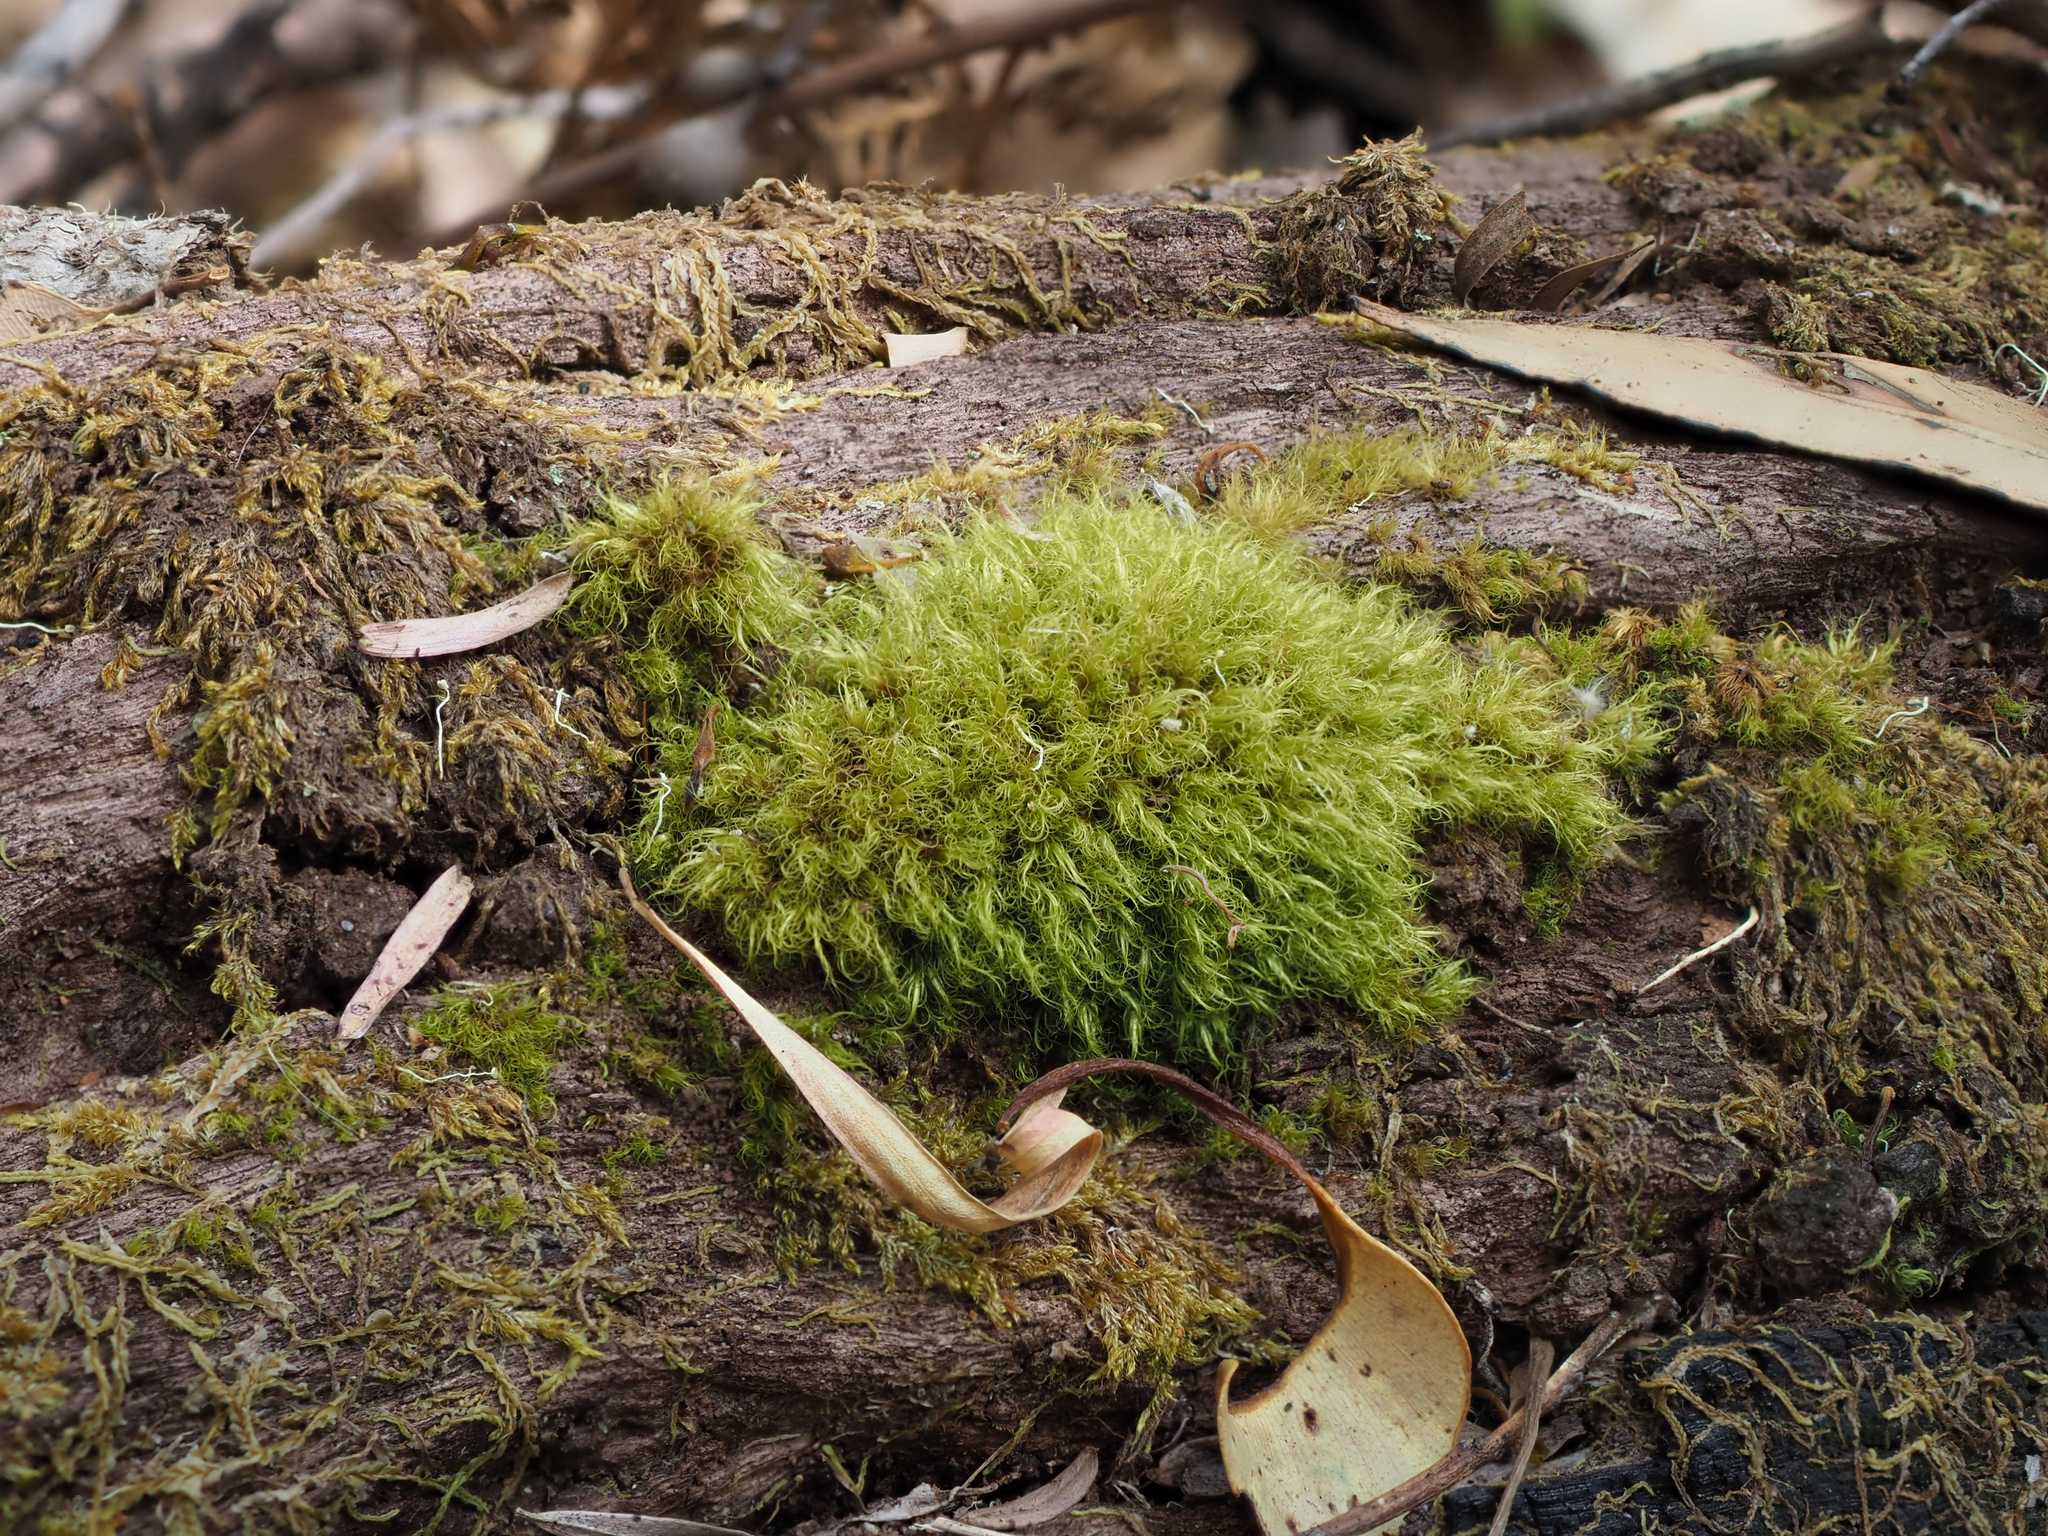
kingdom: Plantae
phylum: Bryophyta
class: Bryopsida
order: Dicranales
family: Dicranaceae
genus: Dicranoloma
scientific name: Dicranoloma diaphanoneuron
